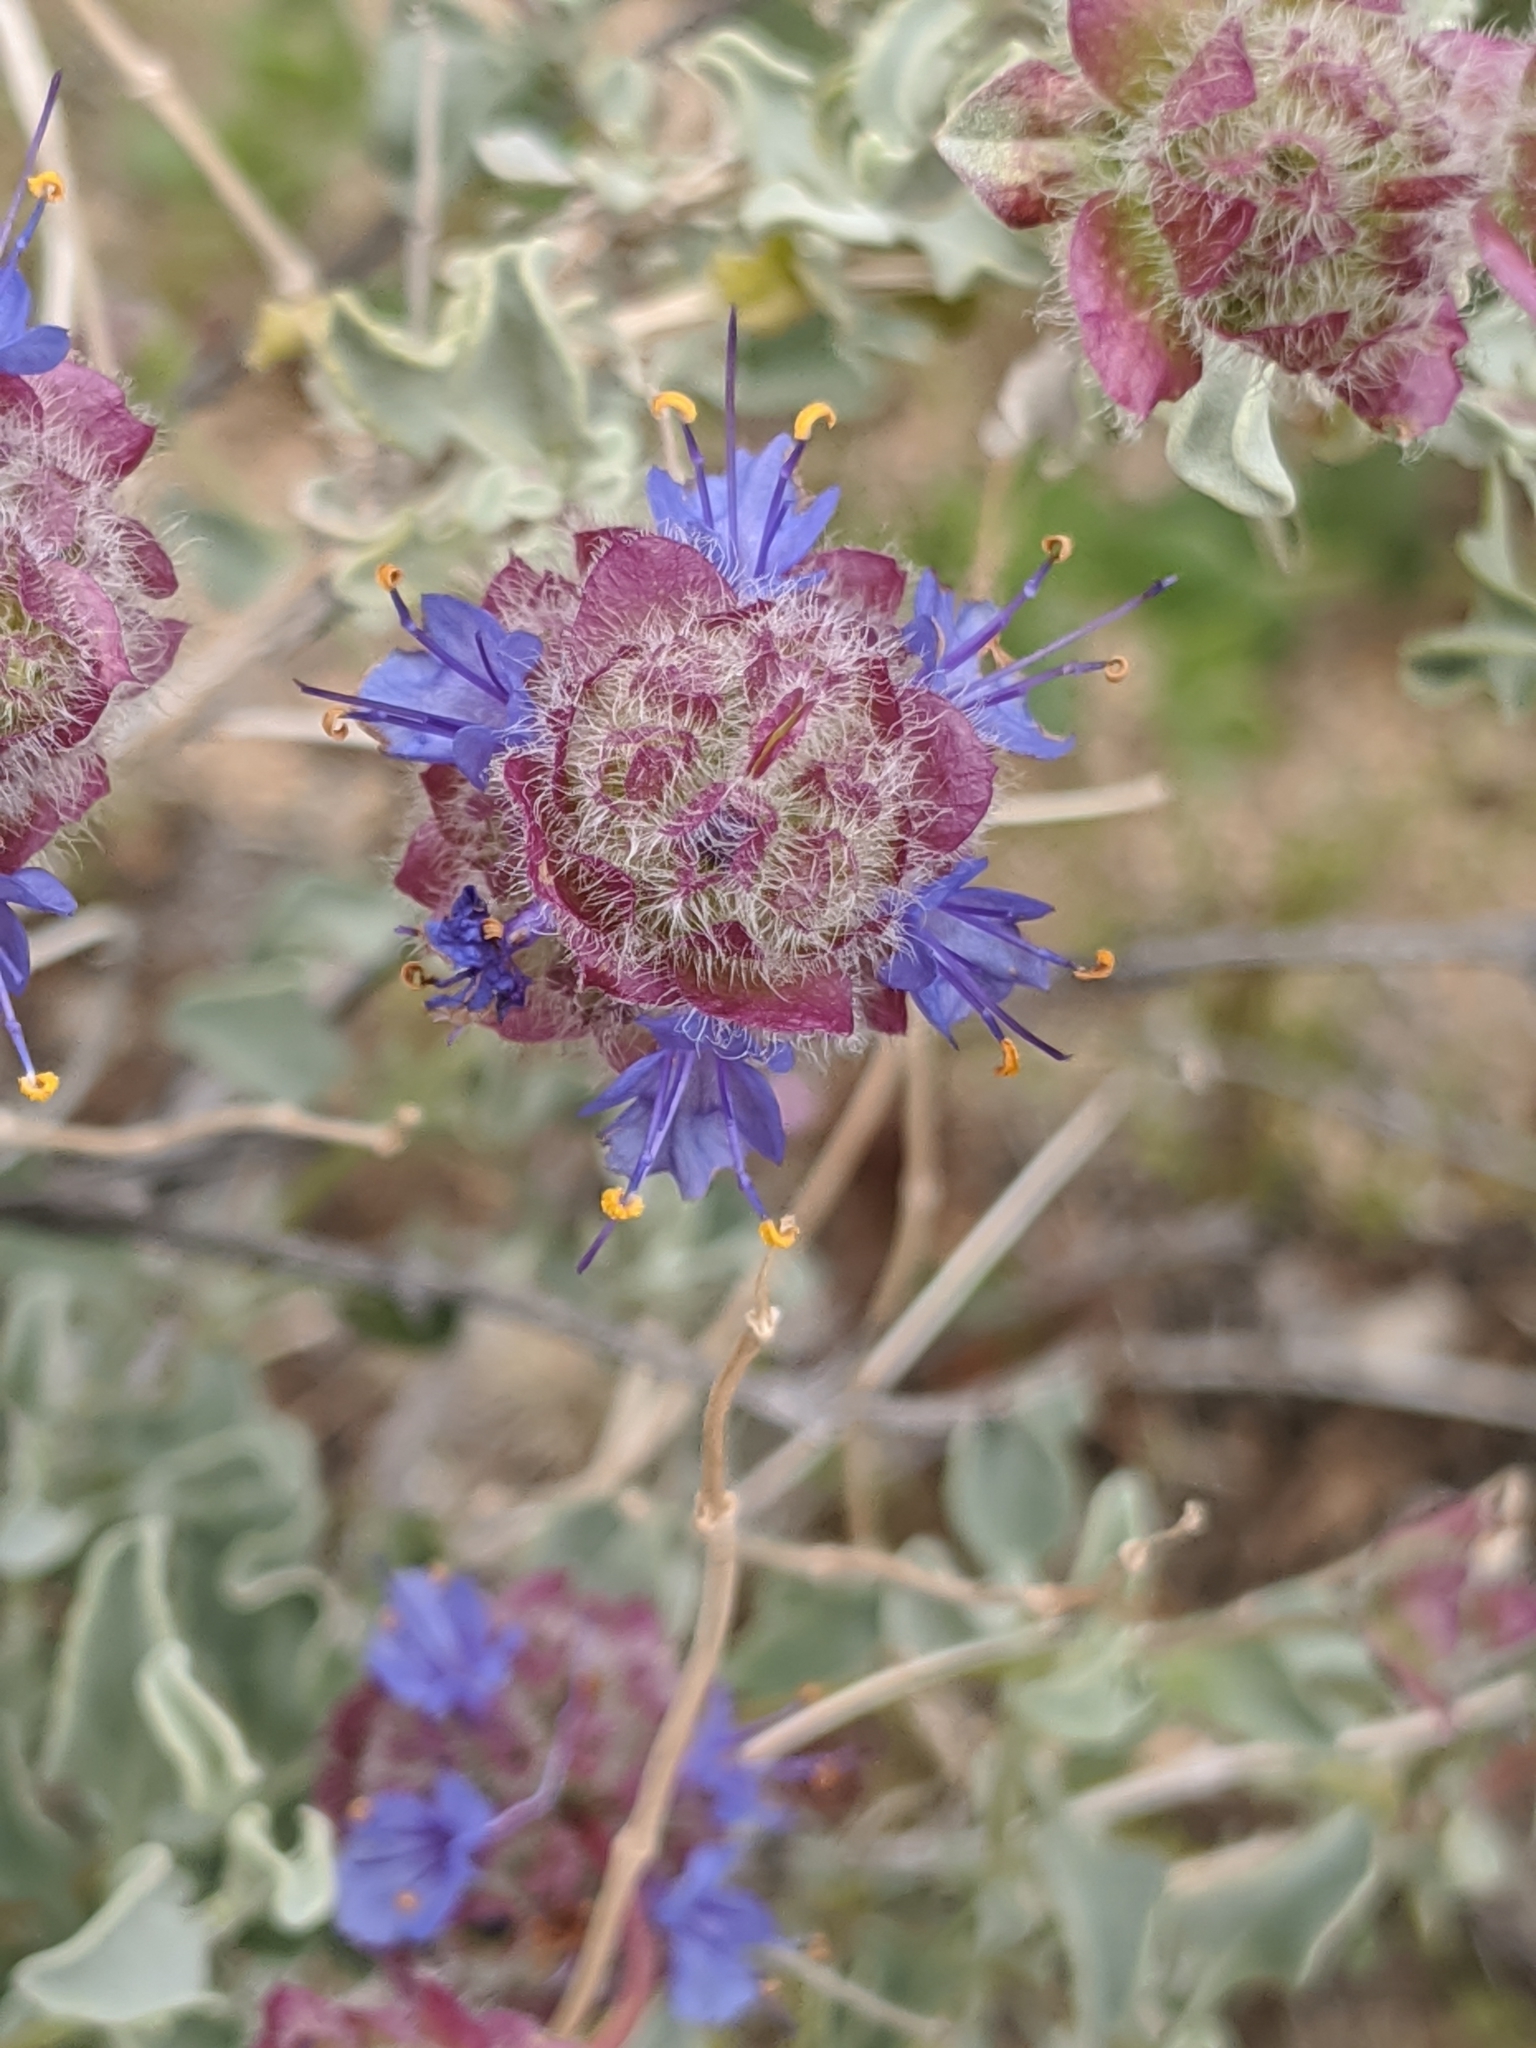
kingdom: Plantae
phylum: Tracheophyta
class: Magnoliopsida
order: Lamiales
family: Lamiaceae
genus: Salvia
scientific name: Salvia dorrii
